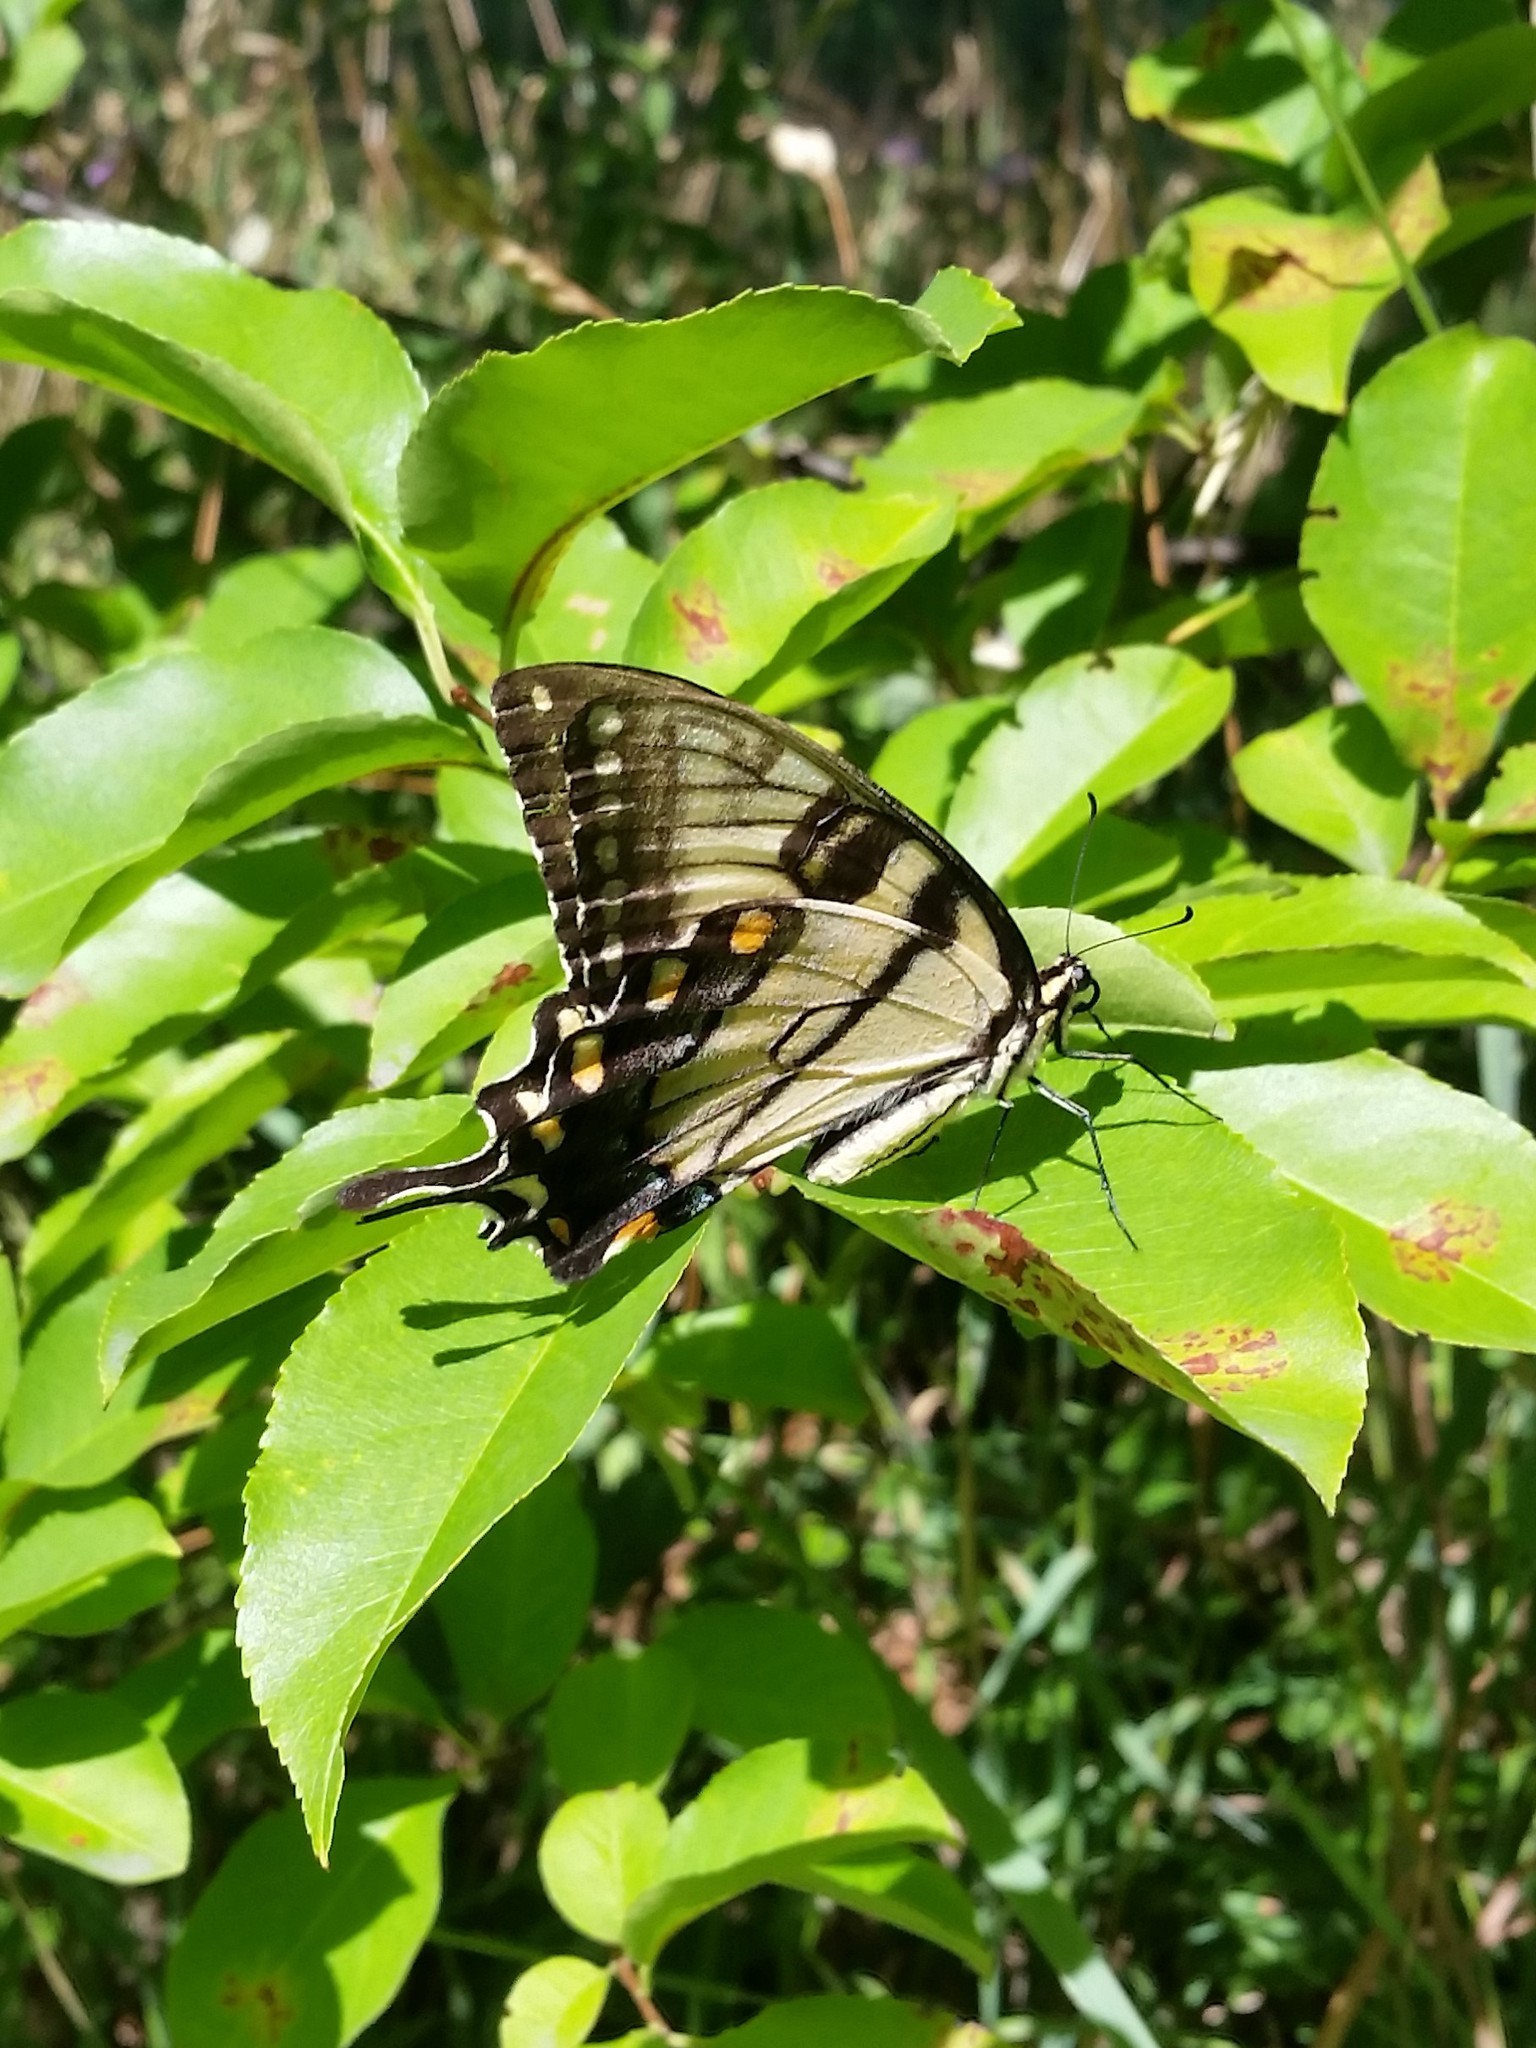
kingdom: Animalia
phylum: Arthropoda
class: Insecta
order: Lepidoptera
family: Papilionidae
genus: Papilio
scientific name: Papilio glaucus
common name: Tiger swallowtail
